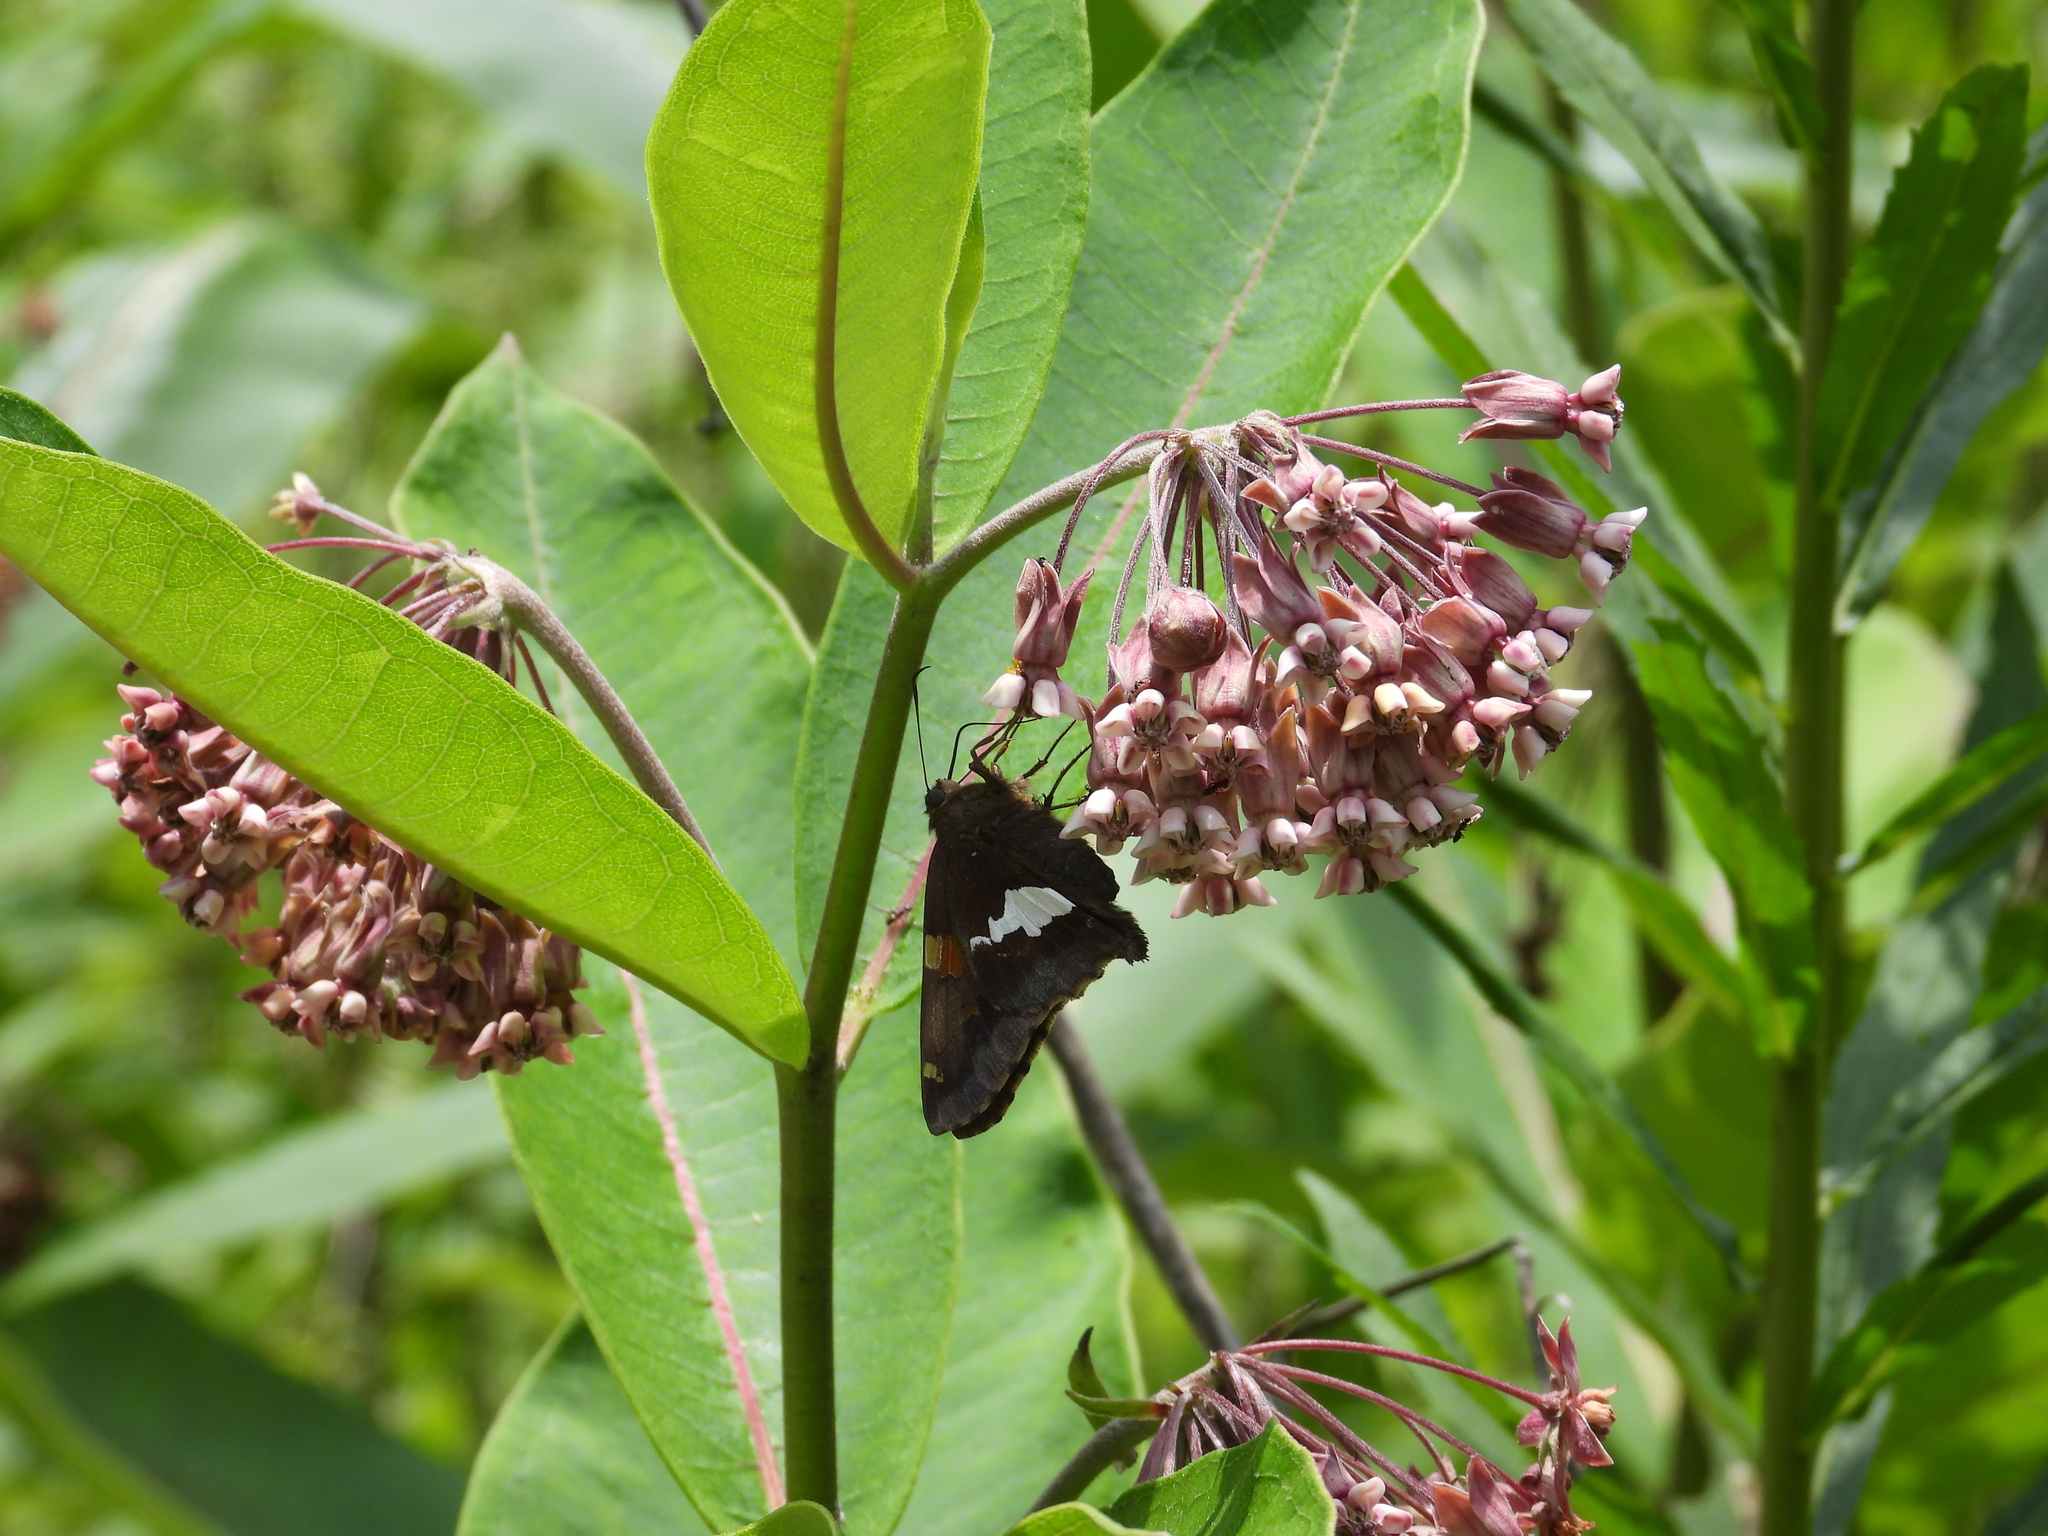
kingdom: Animalia
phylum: Arthropoda
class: Insecta
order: Lepidoptera
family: Hesperiidae
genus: Epargyreus
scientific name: Epargyreus clarus
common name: Silver-spotted skipper
